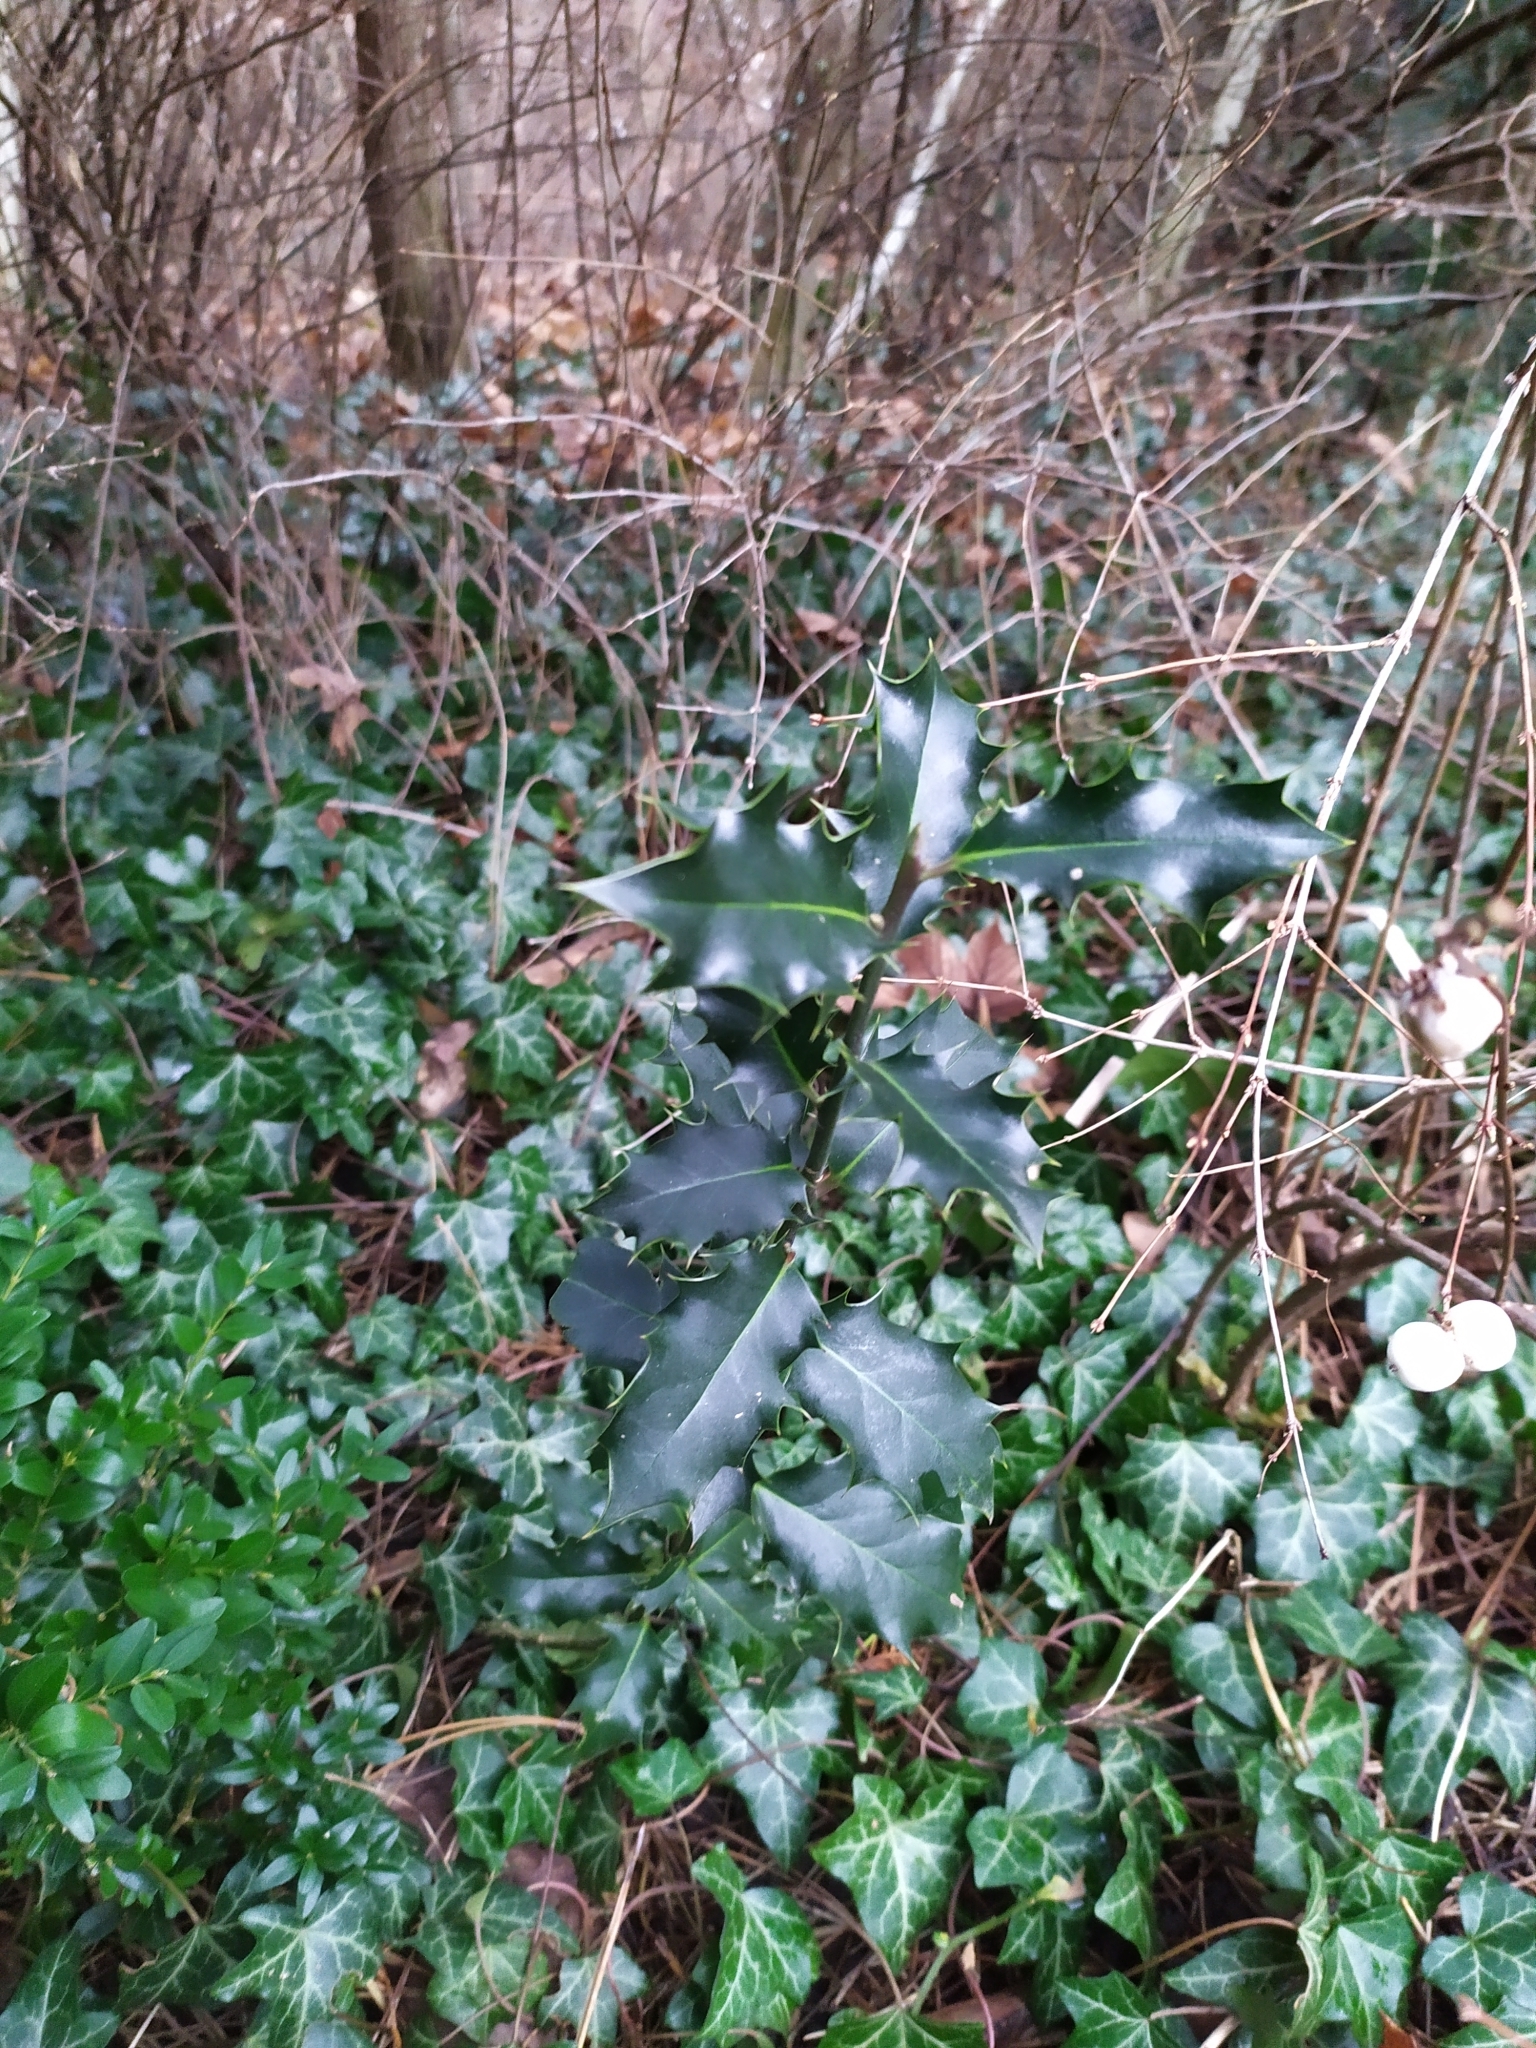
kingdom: Plantae
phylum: Tracheophyta
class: Magnoliopsida
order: Aquifoliales
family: Aquifoliaceae
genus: Ilex
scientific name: Ilex aquifolium
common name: English holly
